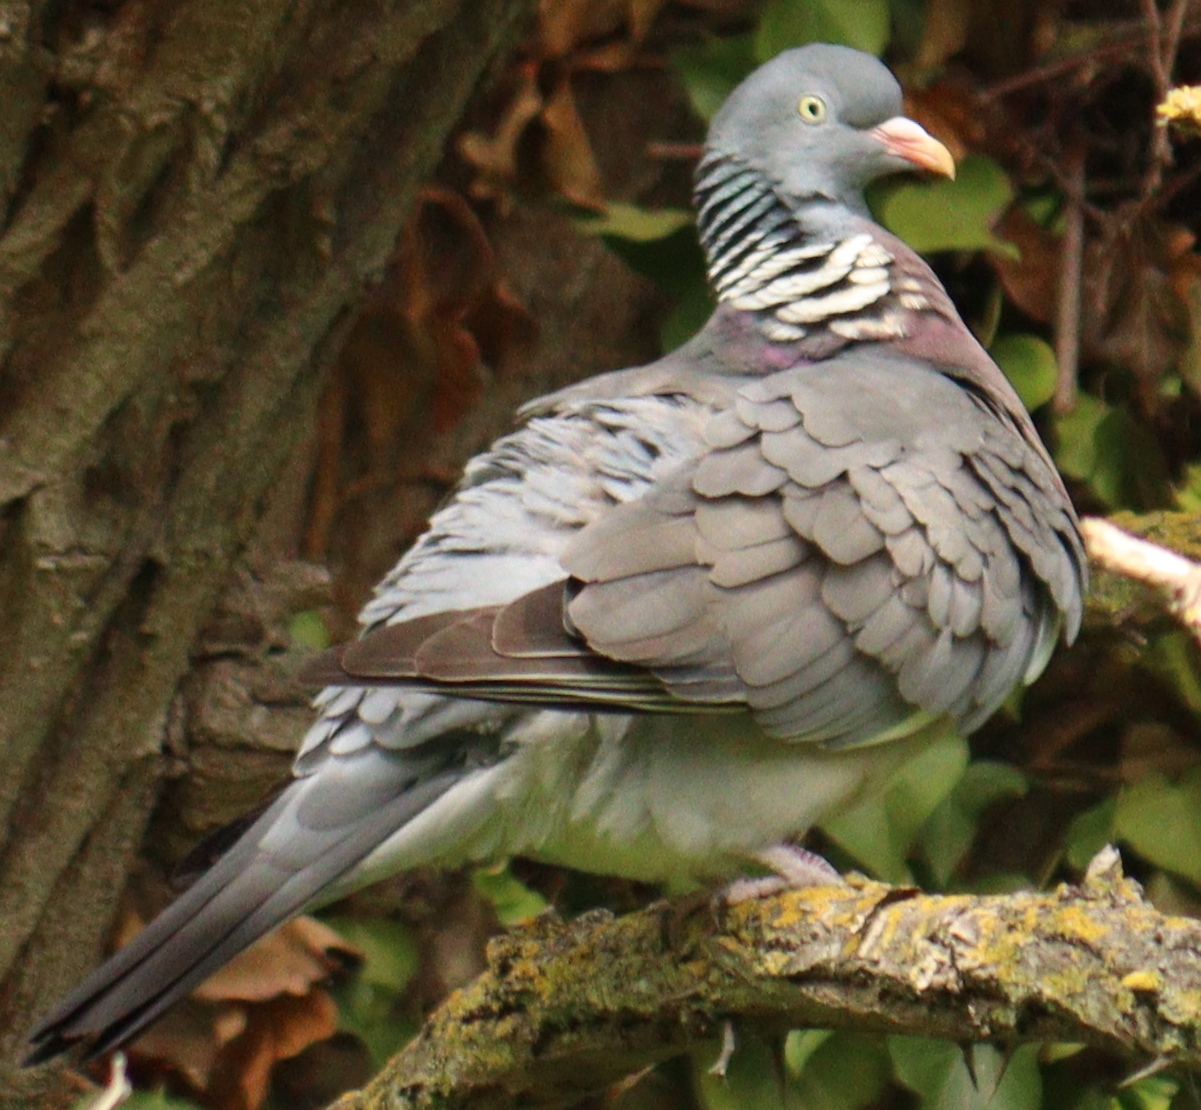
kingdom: Animalia
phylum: Chordata
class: Aves
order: Columbiformes
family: Columbidae
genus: Columba
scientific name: Columba palumbus
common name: Common wood pigeon
